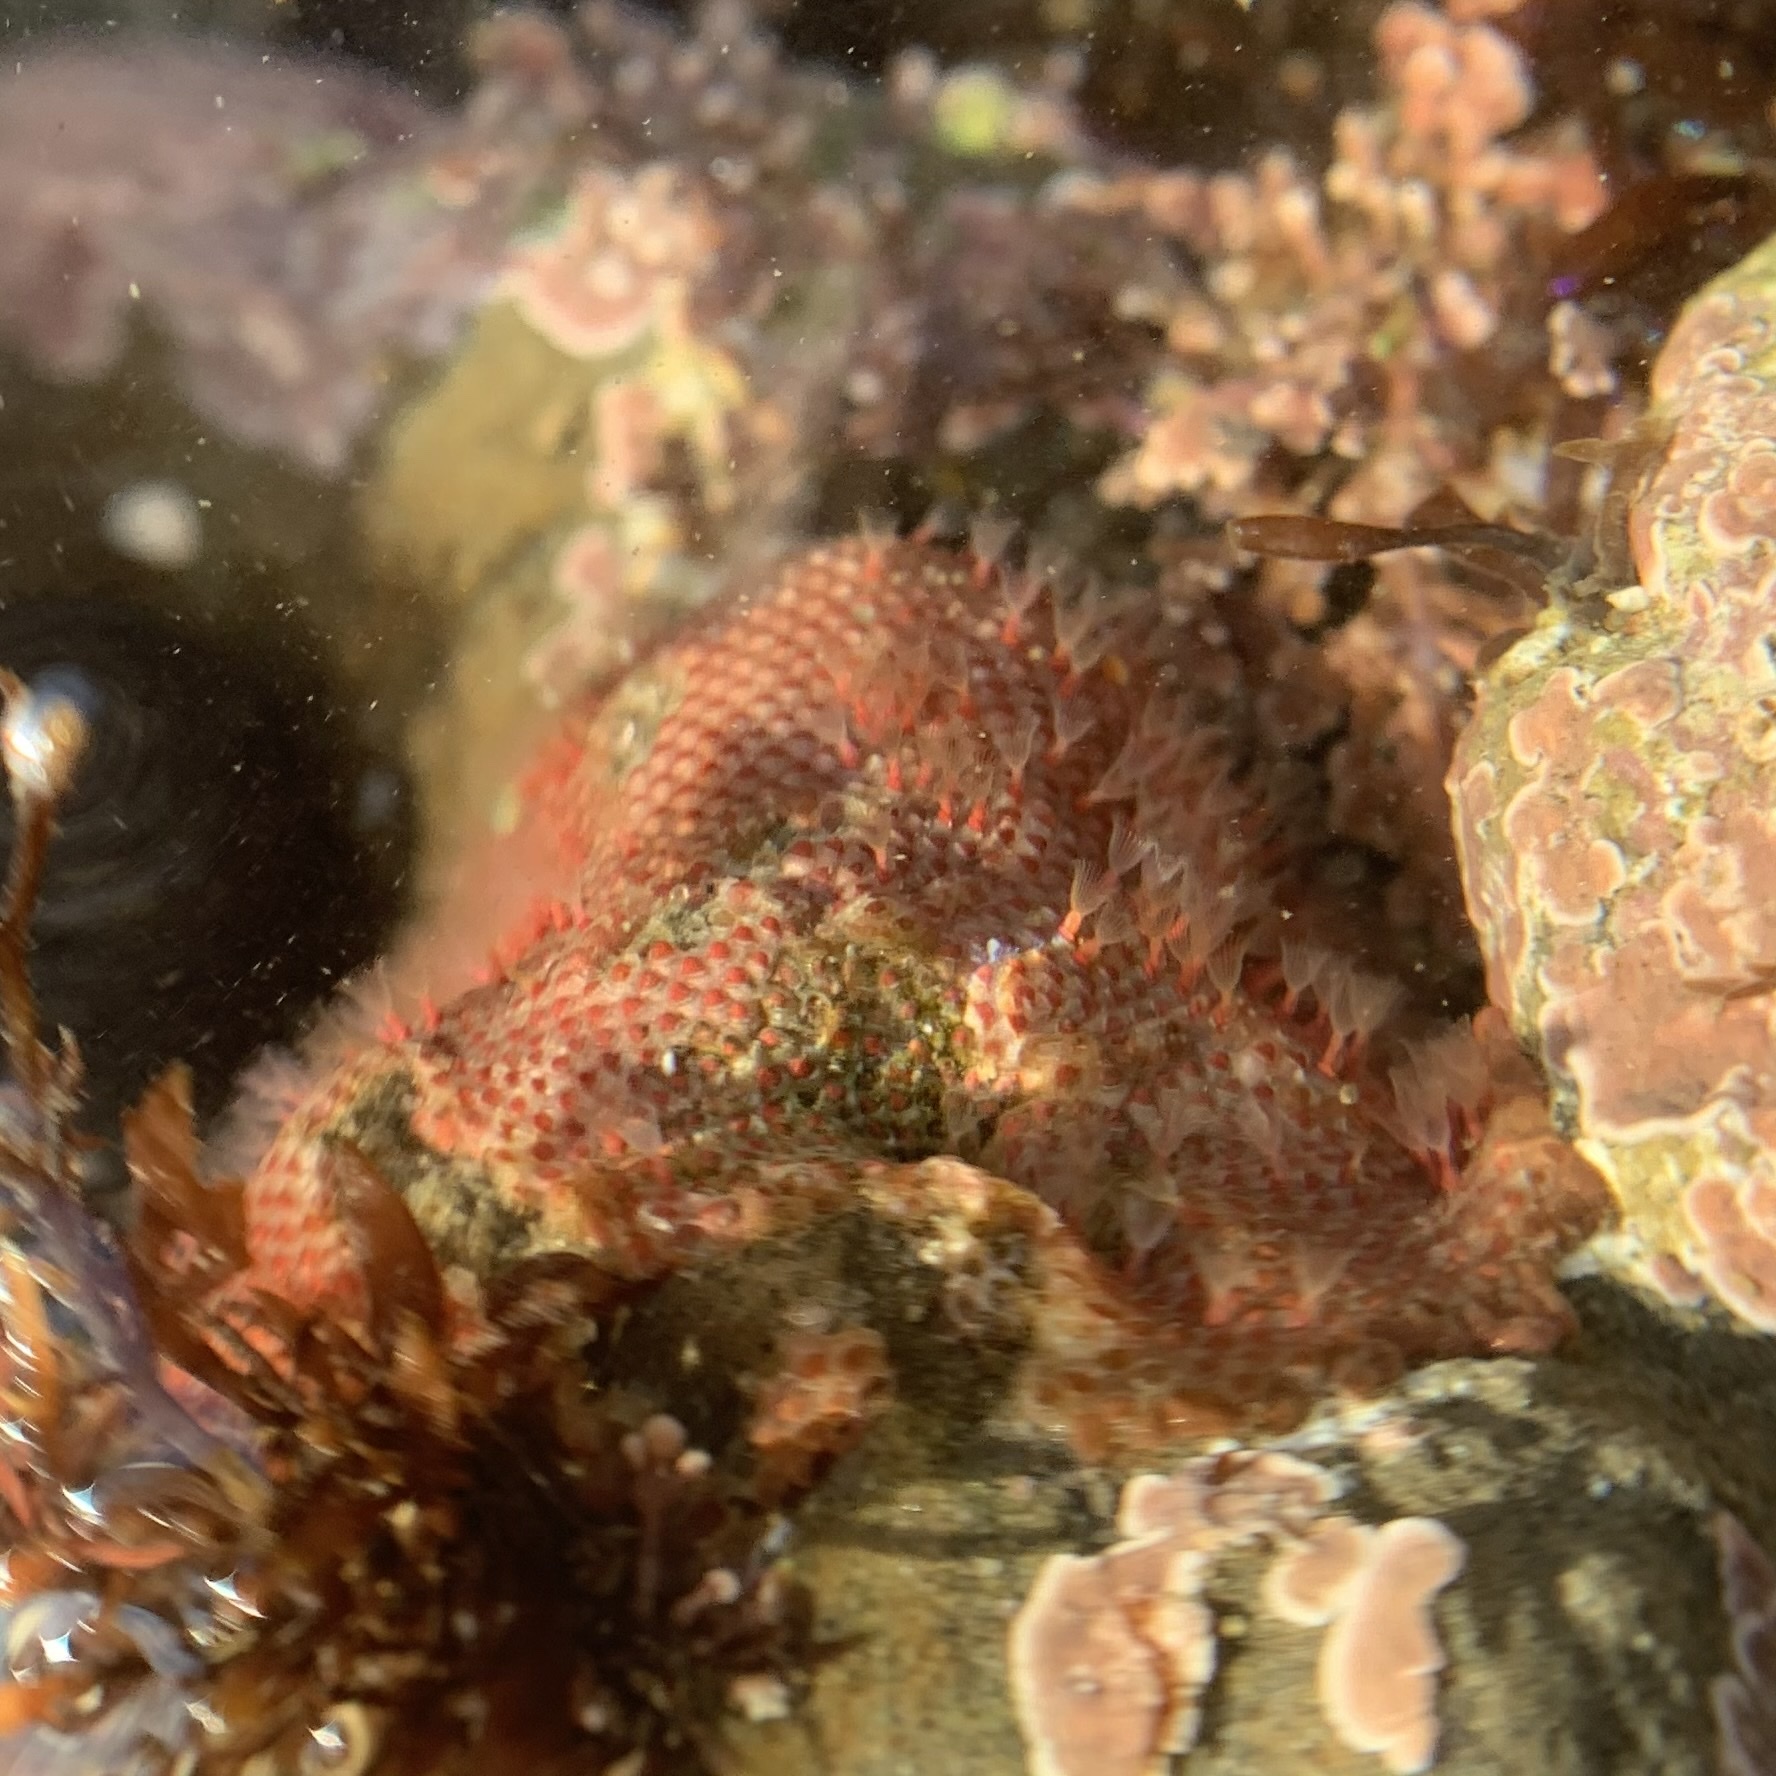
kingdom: Animalia
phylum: Bryozoa
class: Gymnolaemata
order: Cheilostomatida
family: Eurystomellidae
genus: Integripelta
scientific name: Integripelta bilabiata
